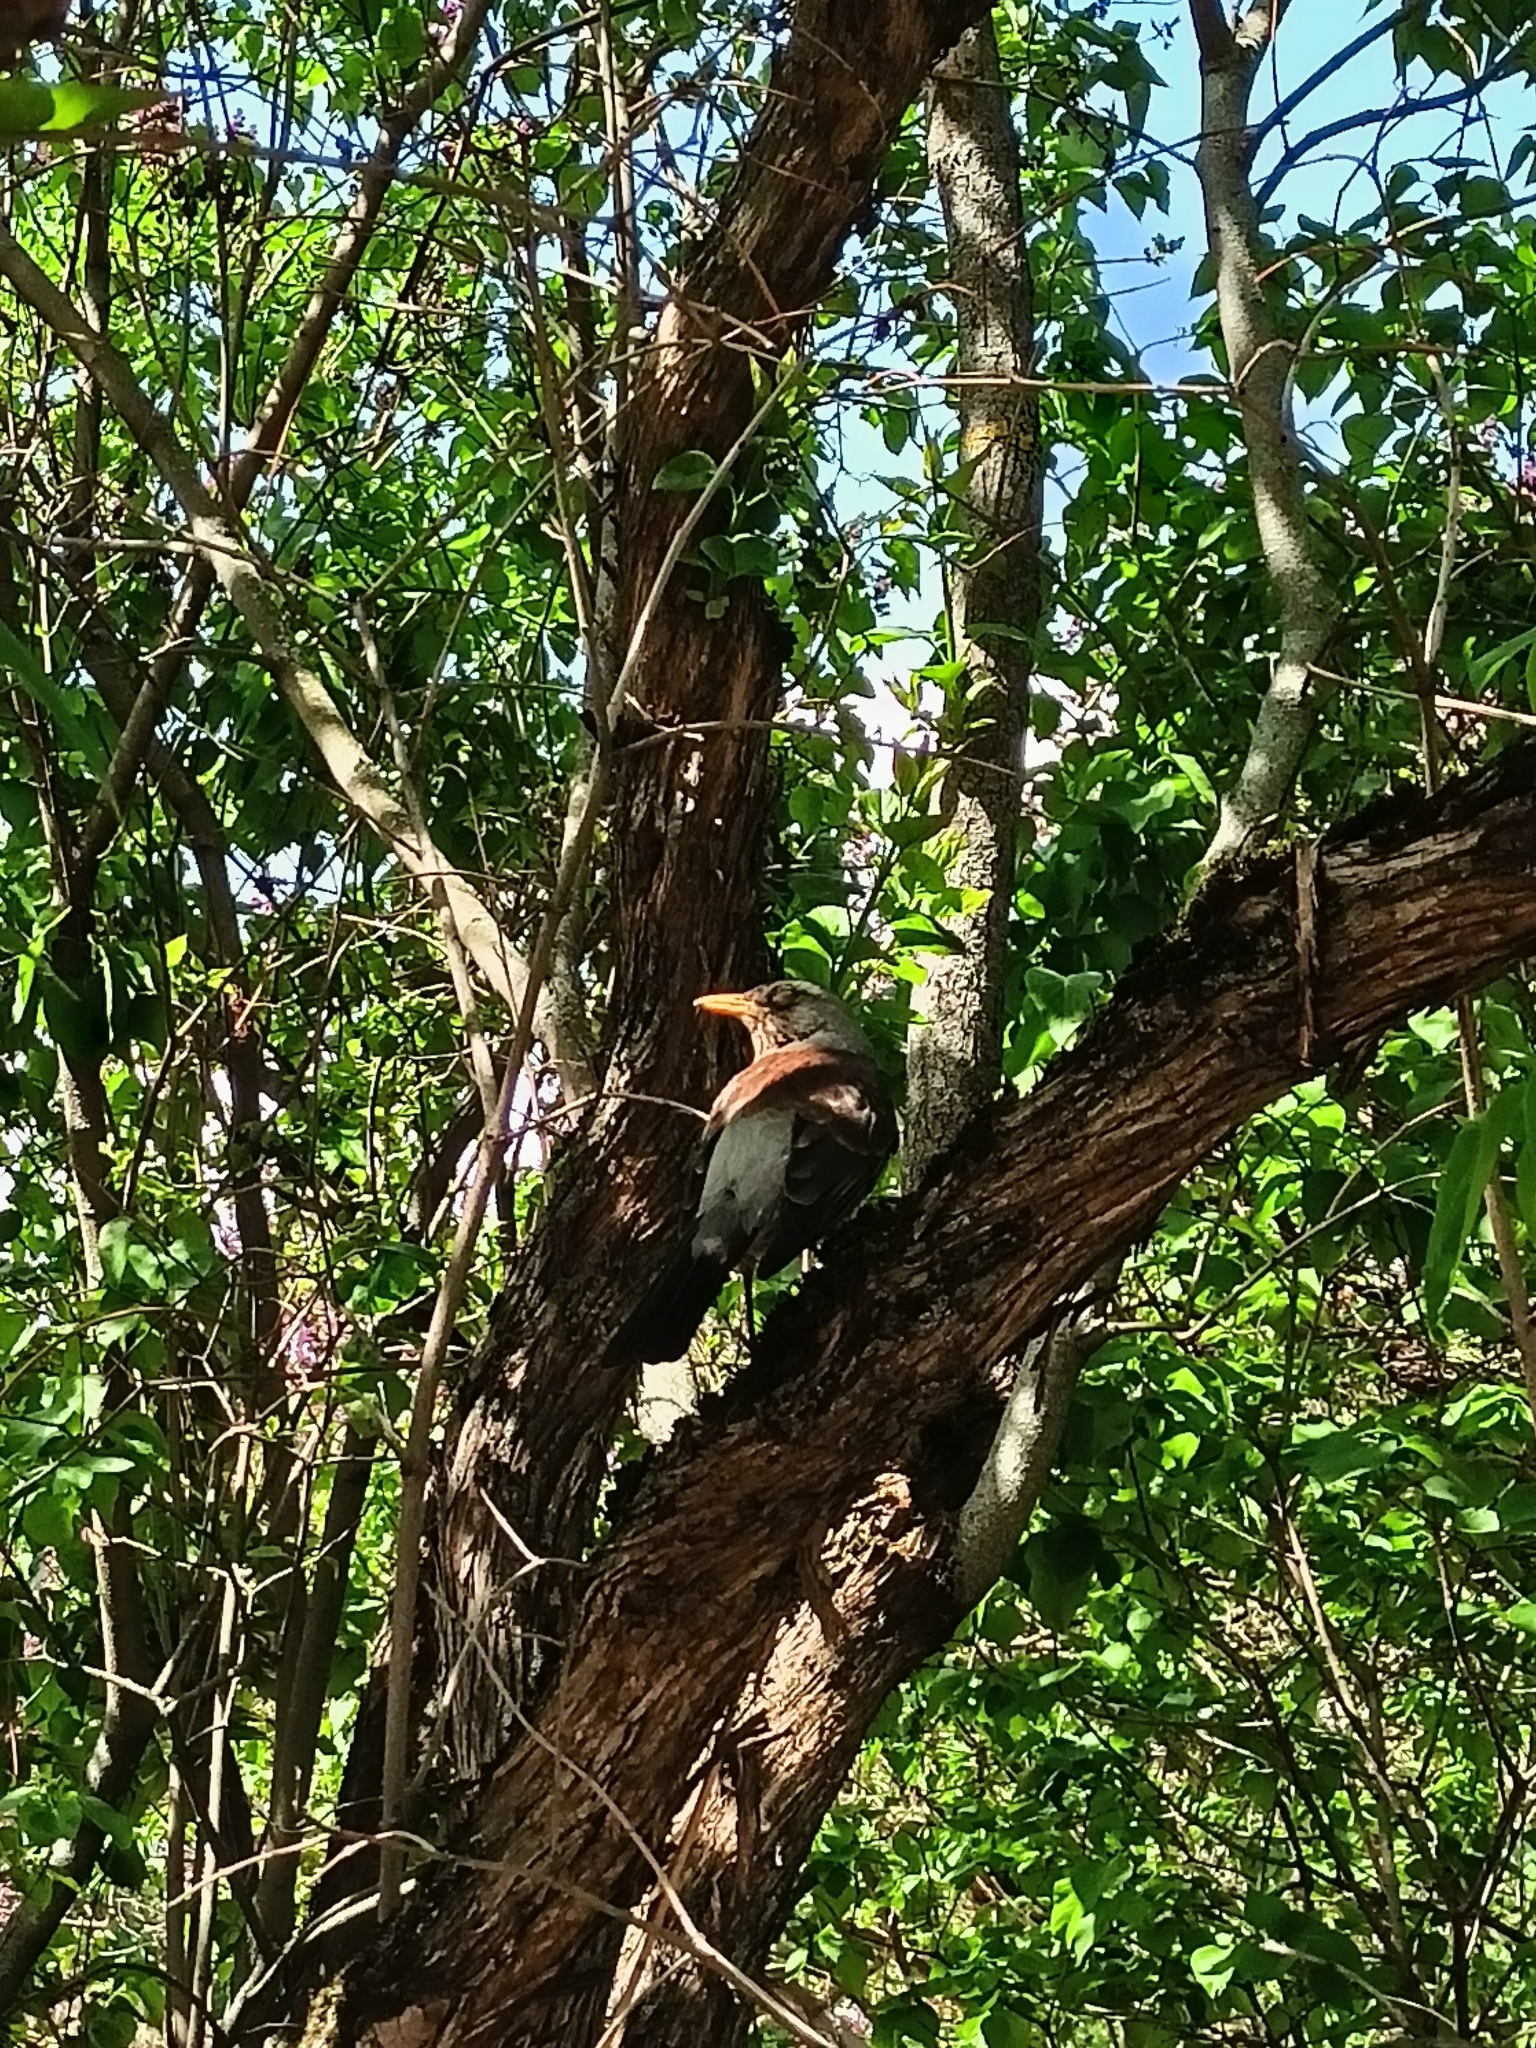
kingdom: Animalia
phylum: Chordata
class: Aves
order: Passeriformes
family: Turdidae
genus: Turdus
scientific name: Turdus pilaris
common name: Fieldfare
